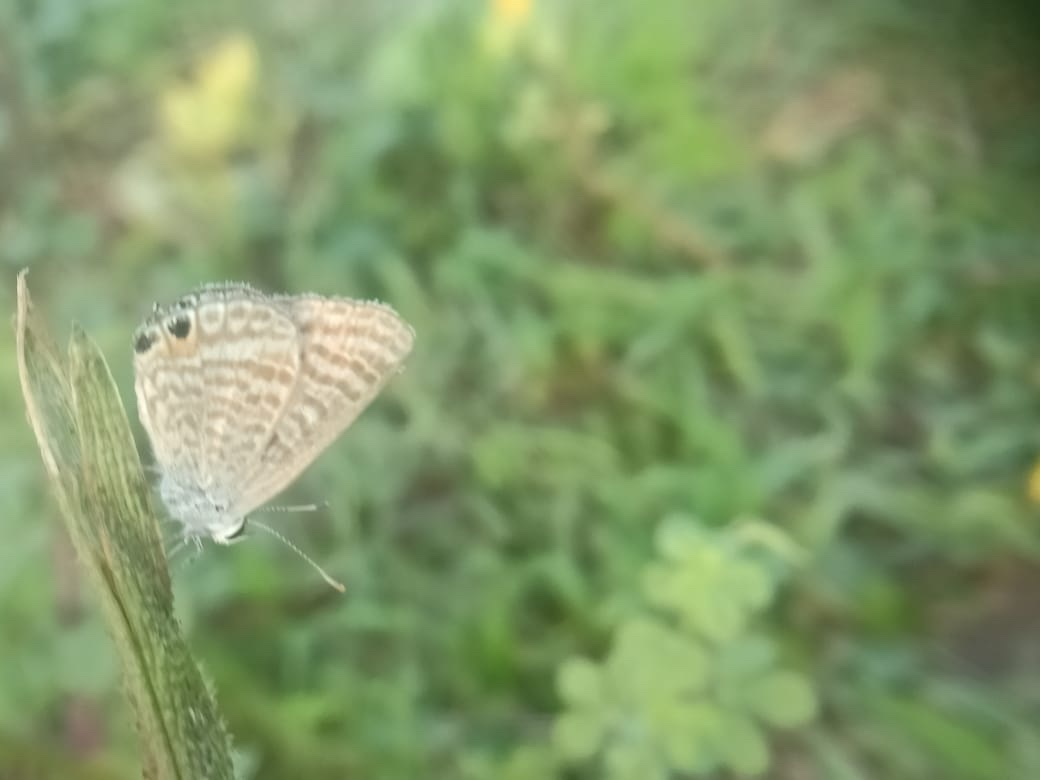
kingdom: Animalia
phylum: Arthropoda
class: Insecta
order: Lepidoptera
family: Lycaenidae
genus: Lampides
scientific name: Lampides boeticus
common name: Long-tailed blue
